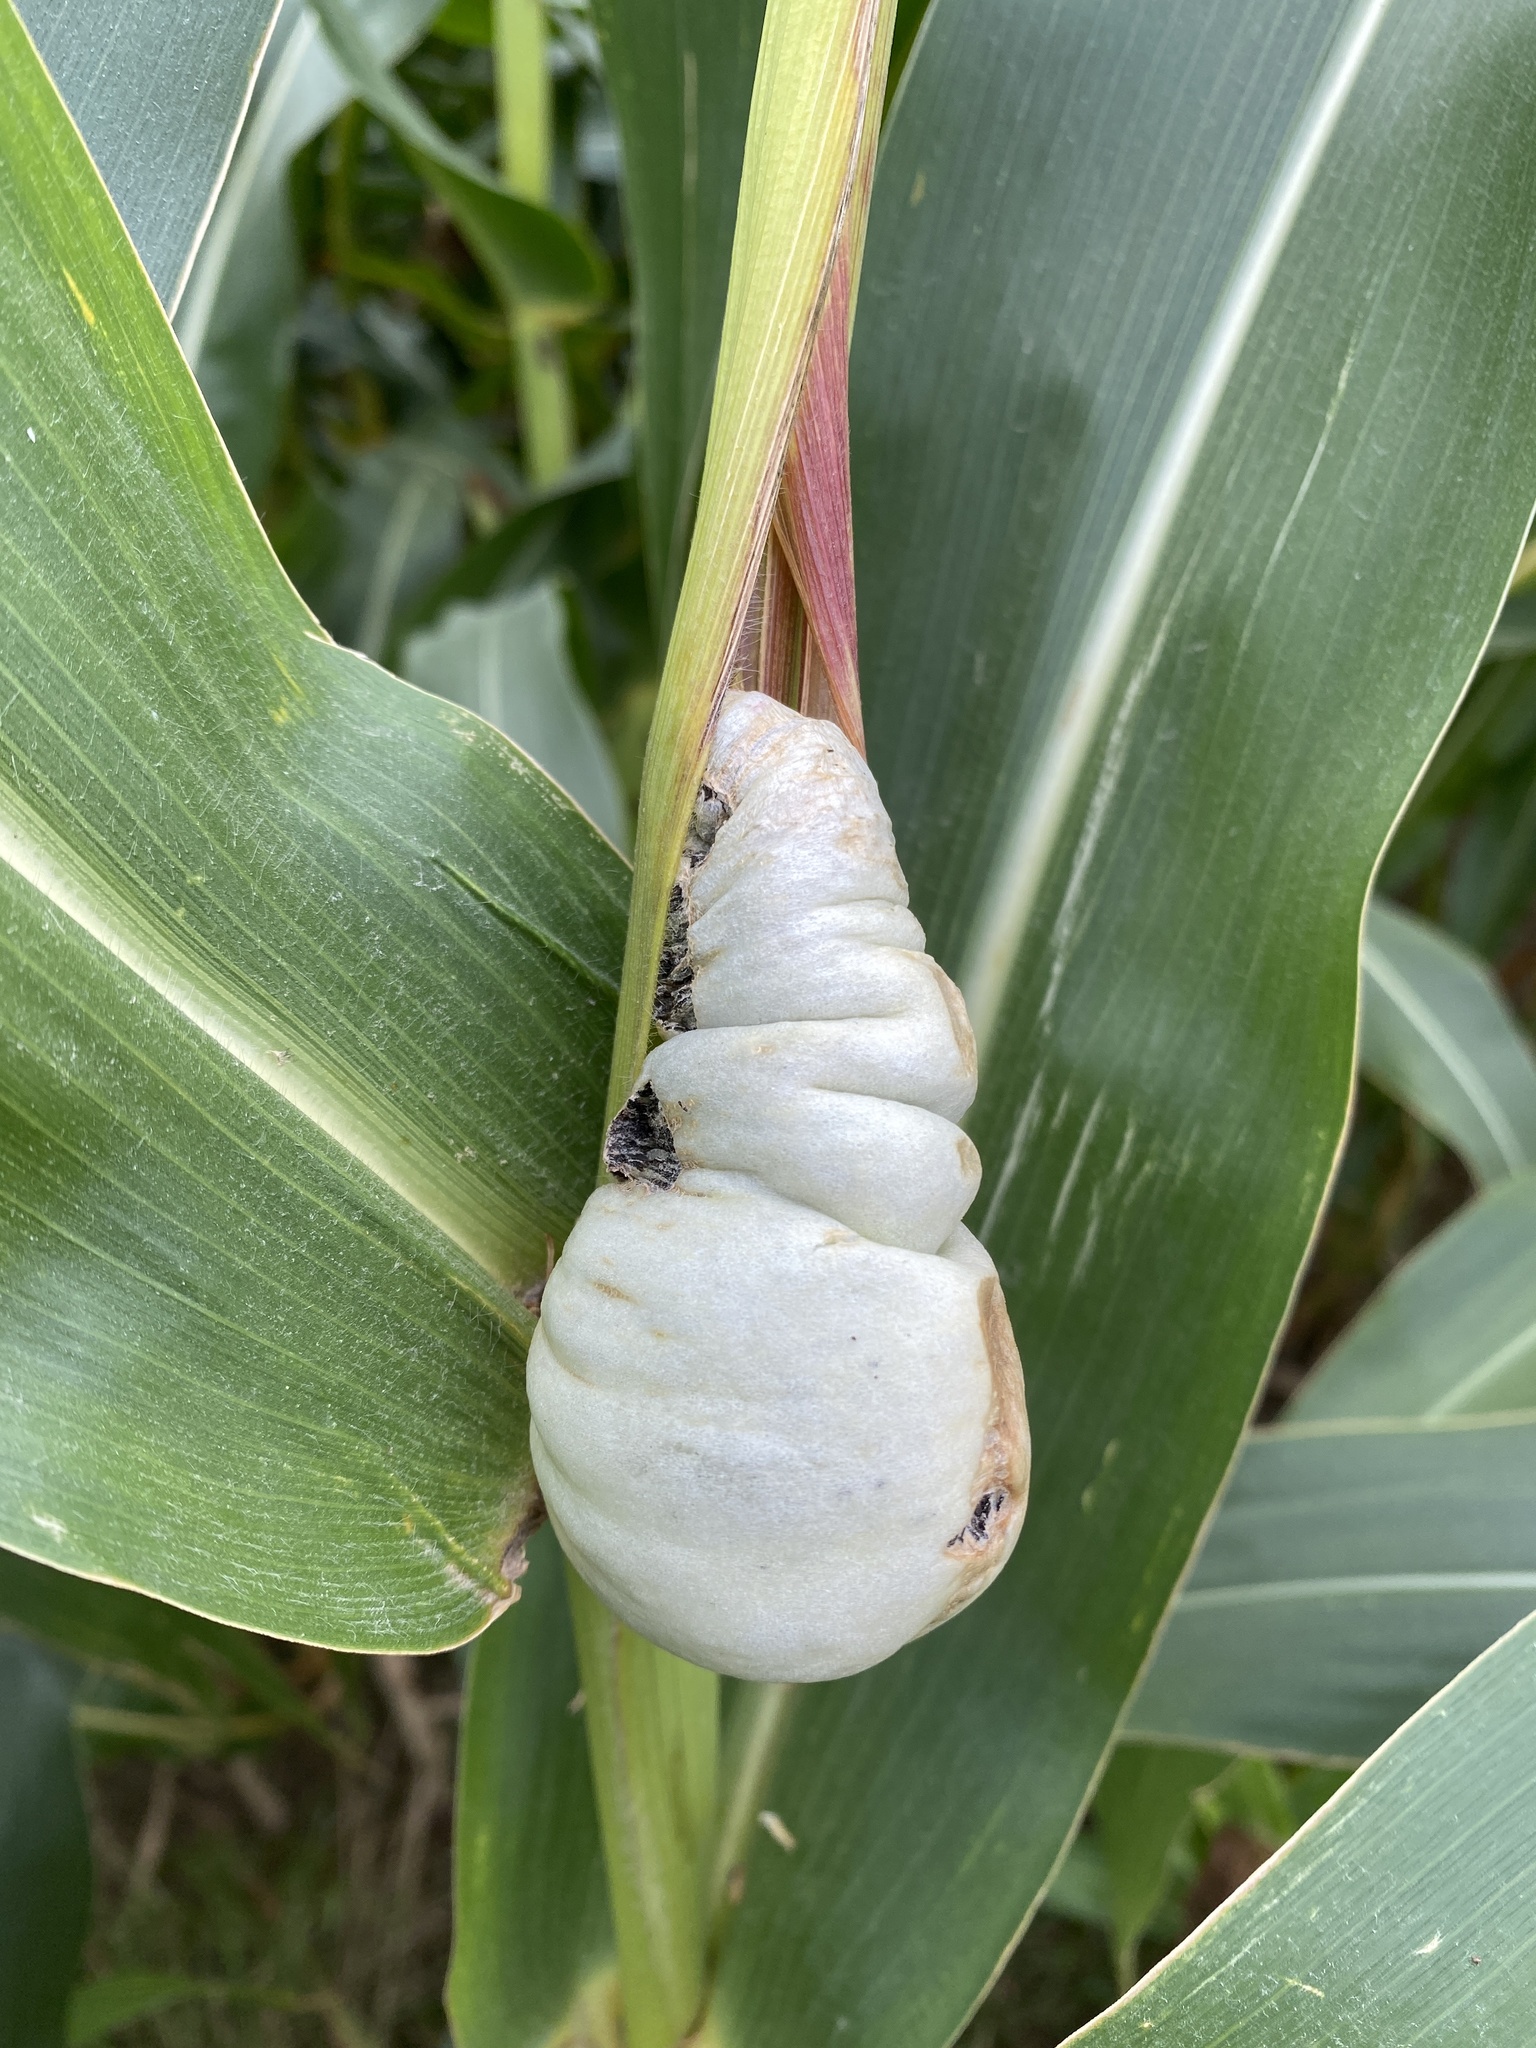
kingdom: Fungi
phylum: Basidiomycota
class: Ustilaginomycetes
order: Ustilaginales
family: Ustilaginaceae
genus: Mycosarcoma
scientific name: Mycosarcoma maydis
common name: Corn smut
